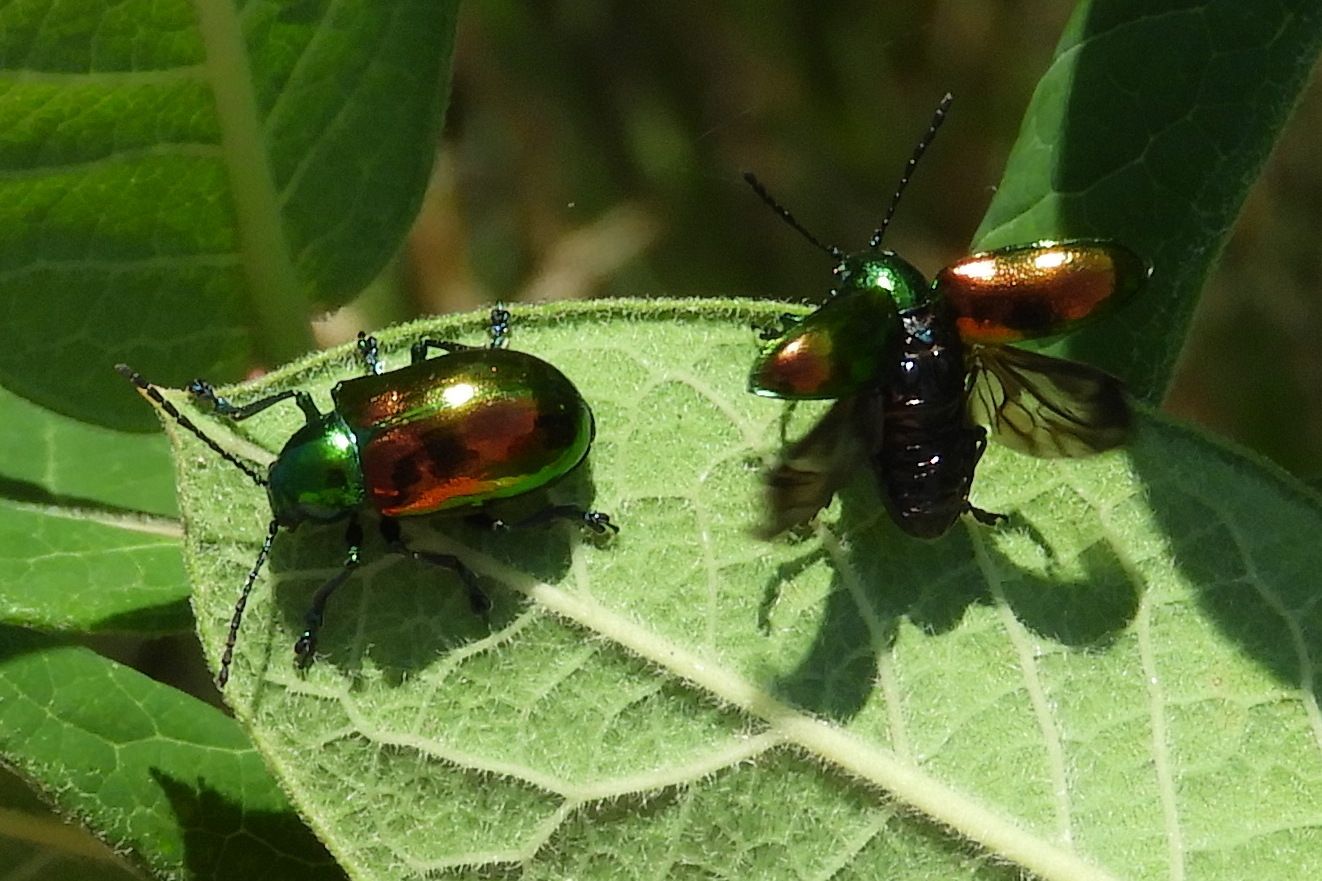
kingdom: Animalia
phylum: Arthropoda
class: Insecta
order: Coleoptera
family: Chrysomelidae
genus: Chrysochus
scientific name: Chrysochus auratus
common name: Dogbane leaf beetle
